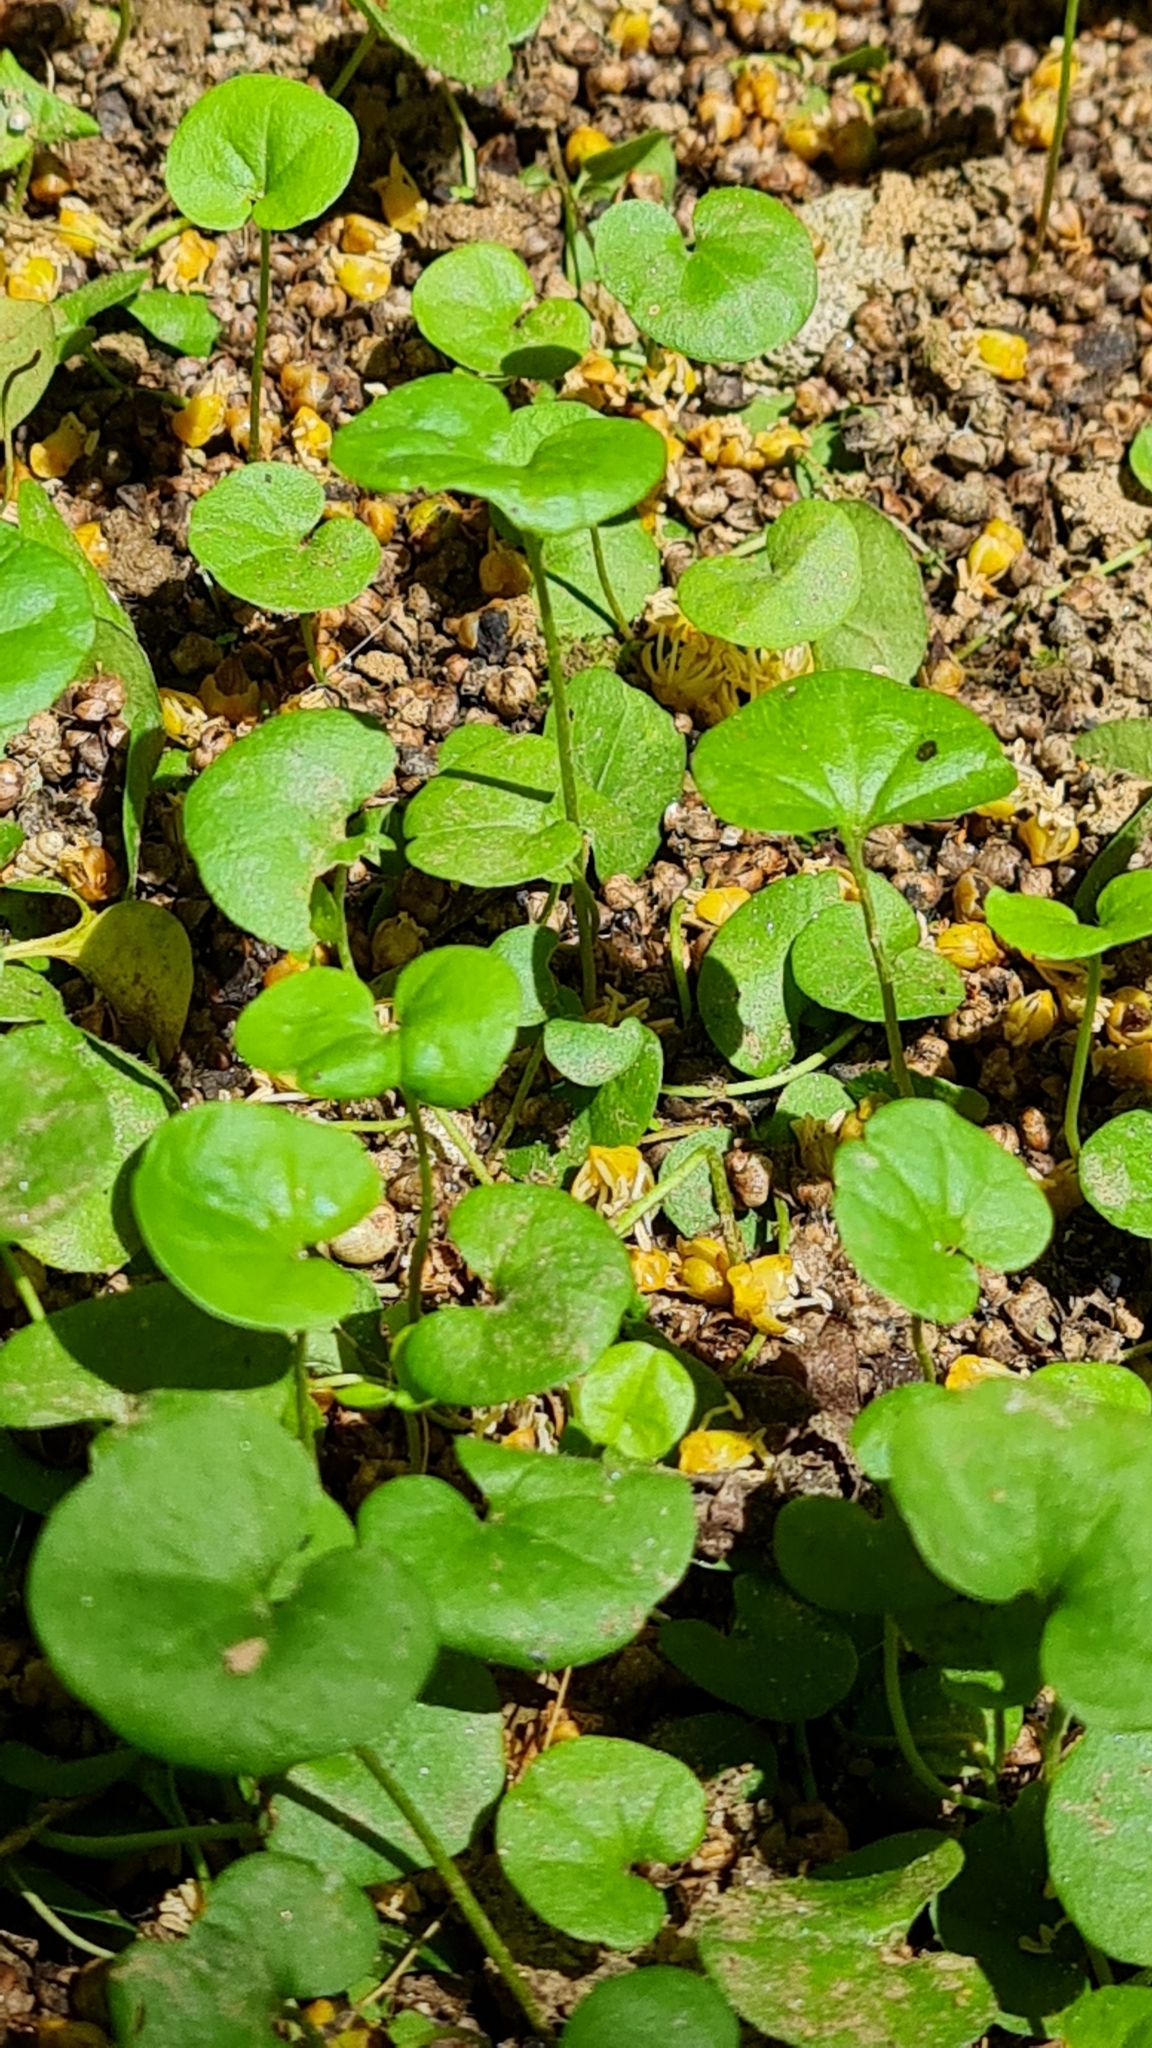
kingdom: Plantae
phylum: Tracheophyta
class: Magnoliopsida
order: Solanales
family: Convolvulaceae
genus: Dichondra
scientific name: Dichondra
